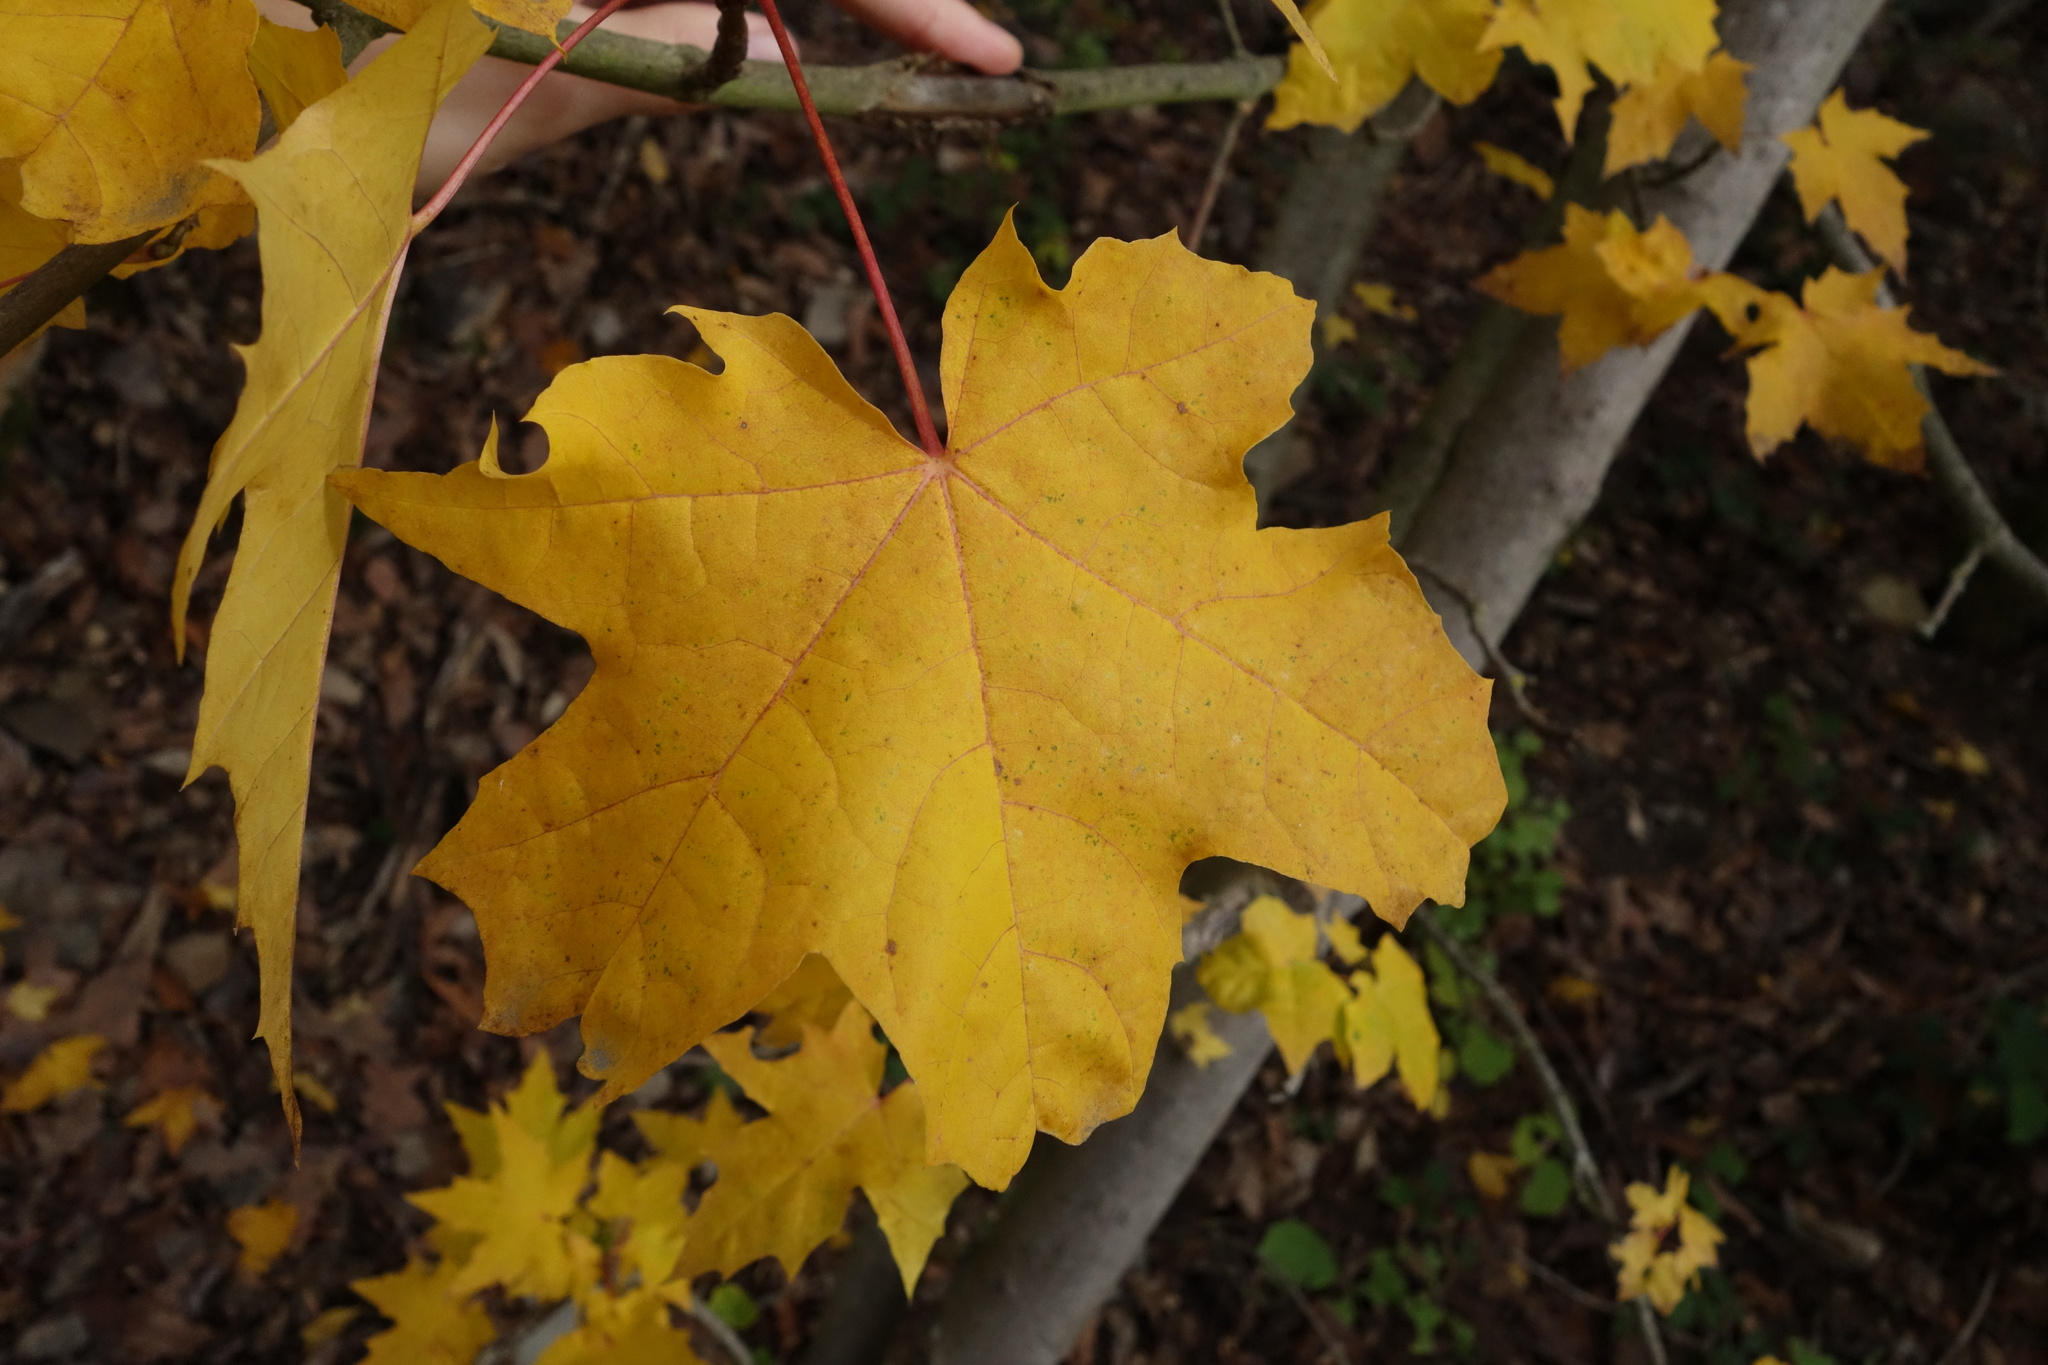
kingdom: Plantae
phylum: Tracheophyta
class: Magnoliopsida
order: Sapindales
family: Sapindaceae
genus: Acer
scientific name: Acer platanoides
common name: Norway maple
